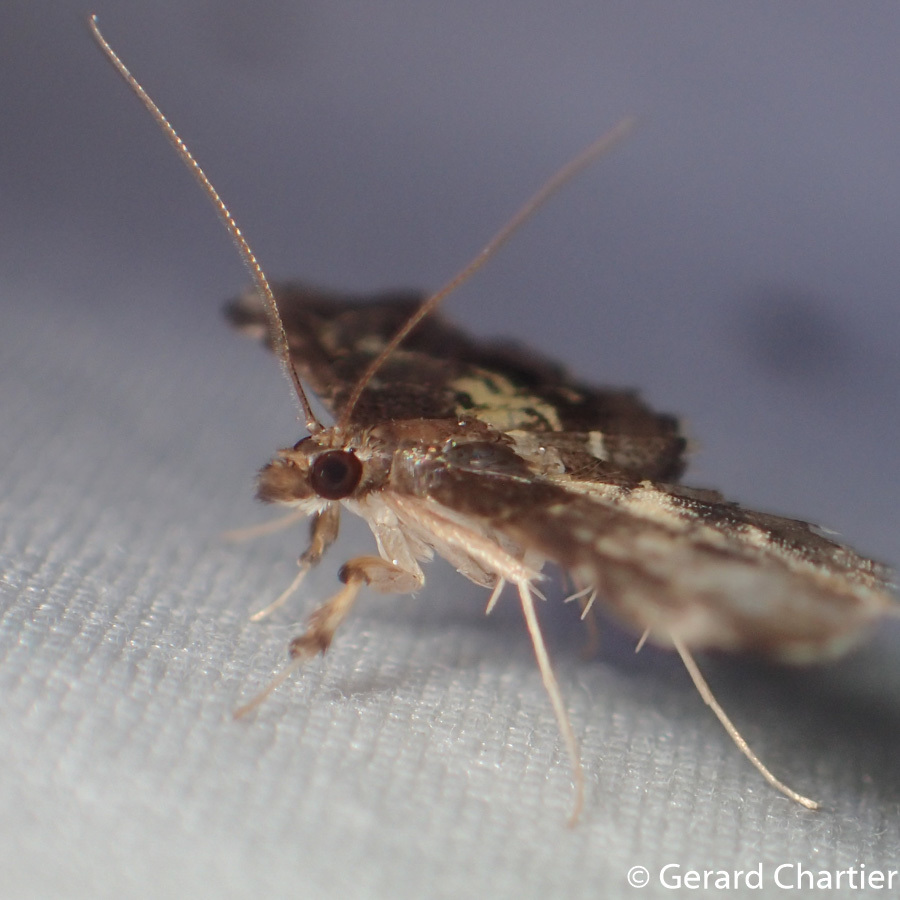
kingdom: Animalia
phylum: Arthropoda
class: Insecta
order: Lepidoptera
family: Crambidae
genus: Eurrhyparodes
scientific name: Eurrhyparodes plumbeimarginalis
